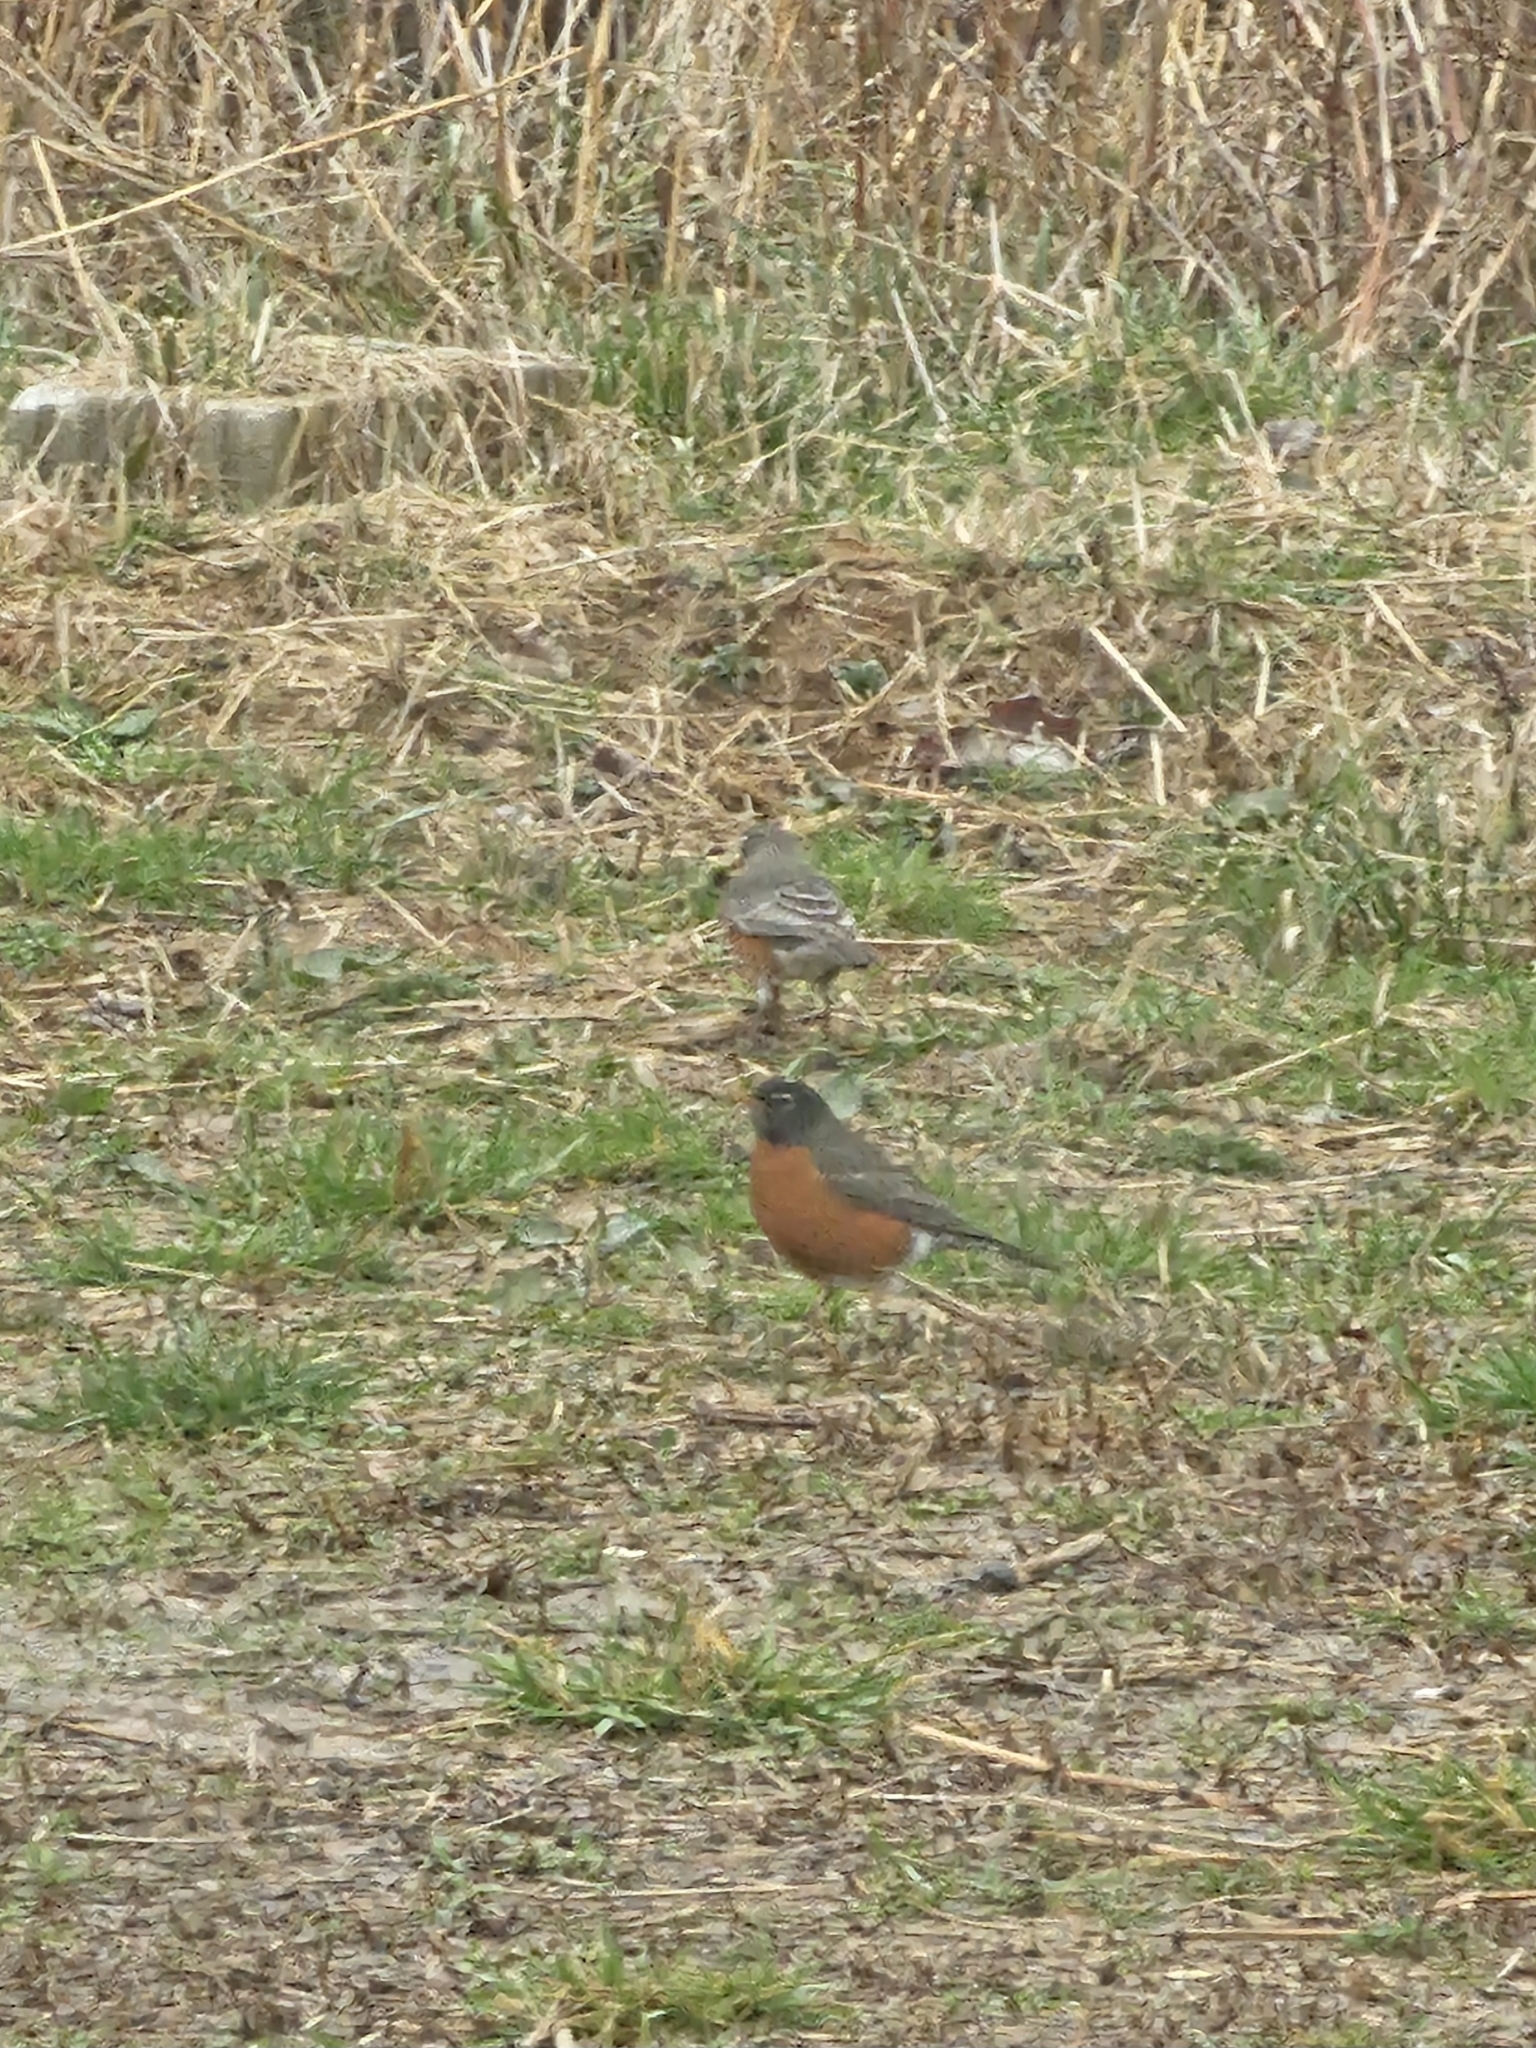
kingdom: Animalia
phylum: Chordata
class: Aves
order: Passeriformes
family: Turdidae
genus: Turdus
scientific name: Turdus migratorius
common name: American robin
